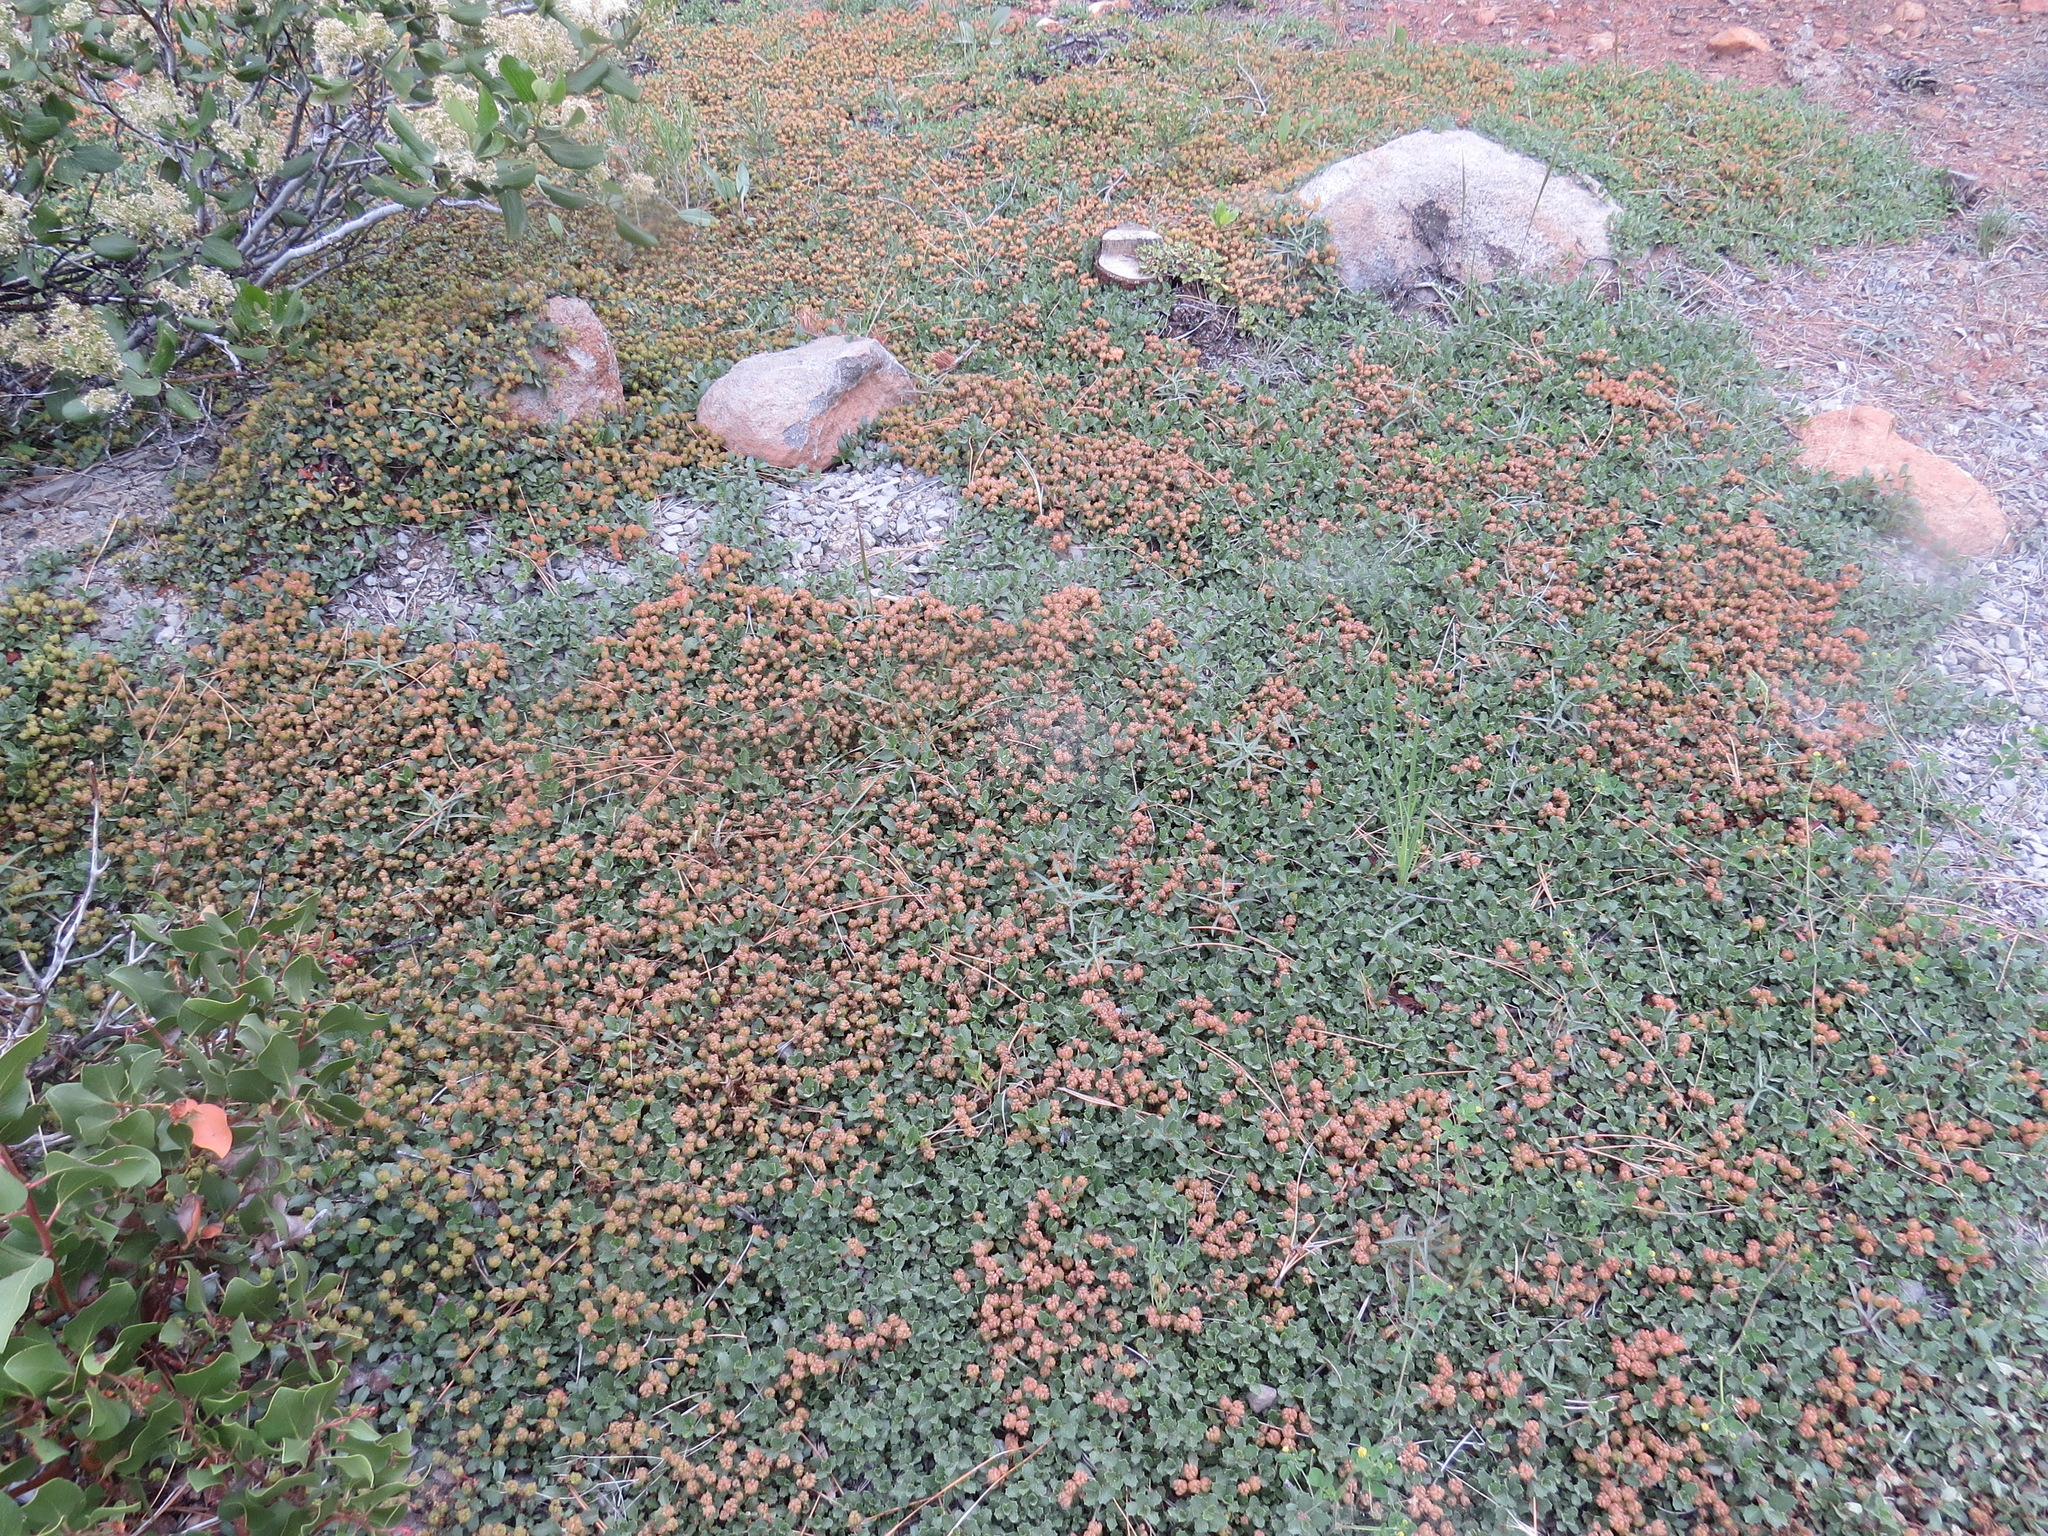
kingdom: Plantae
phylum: Tracheophyta
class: Magnoliopsida
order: Rosales
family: Rhamnaceae
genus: Ceanothus
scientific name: Ceanothus prostratus
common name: Mahala-mat
